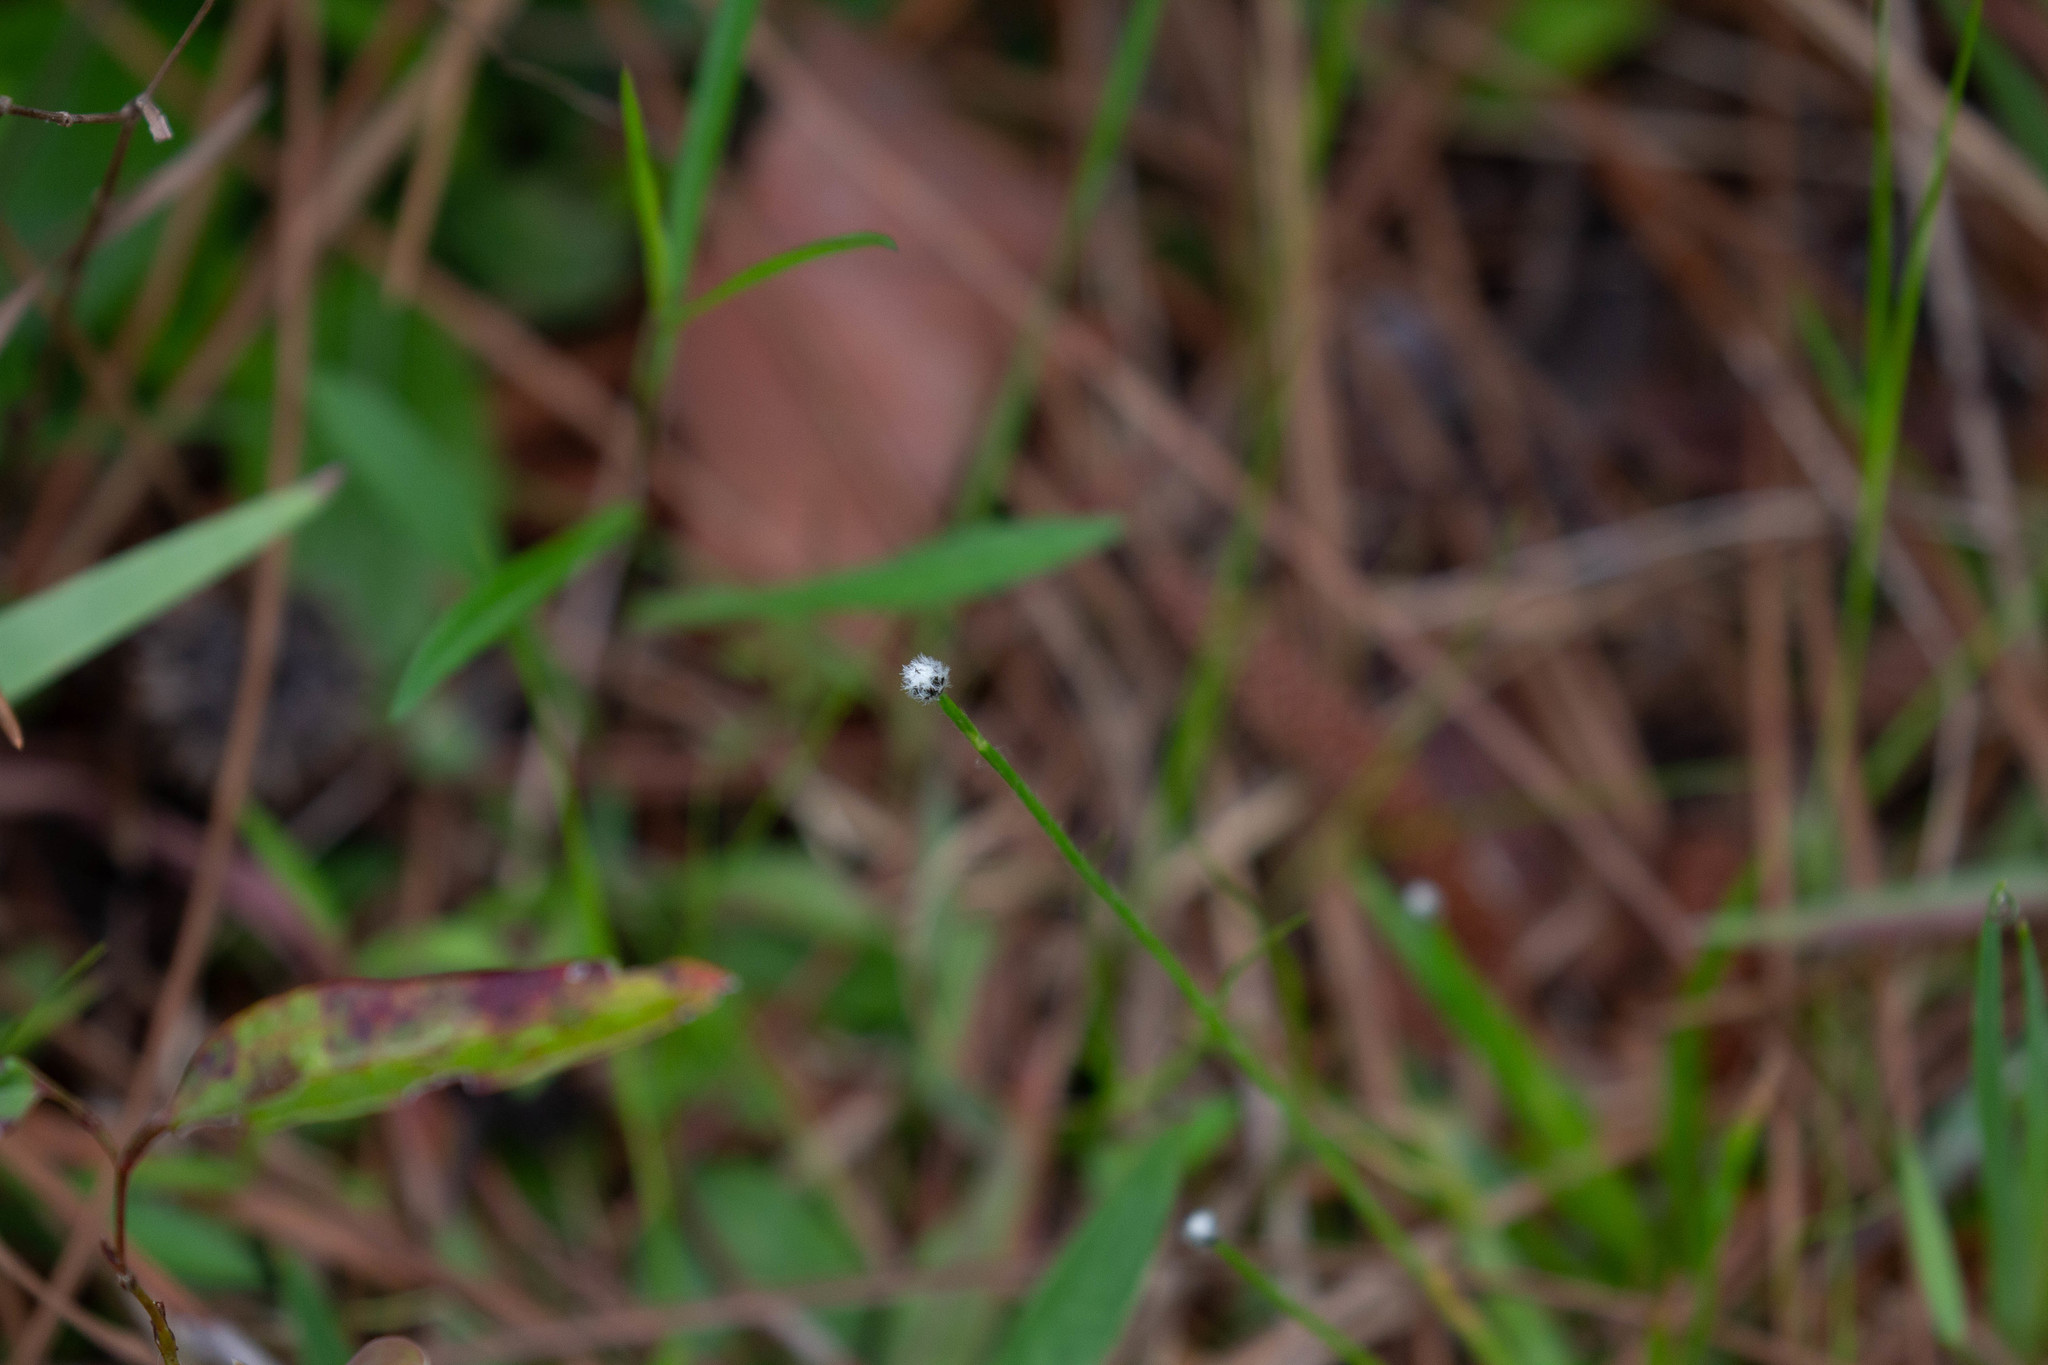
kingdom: Plantae
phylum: Tracheophyta
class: Liliopsida
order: Poales
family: Eriocaulaceae
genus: Paepalanthus
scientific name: Paepalanthus anceps
